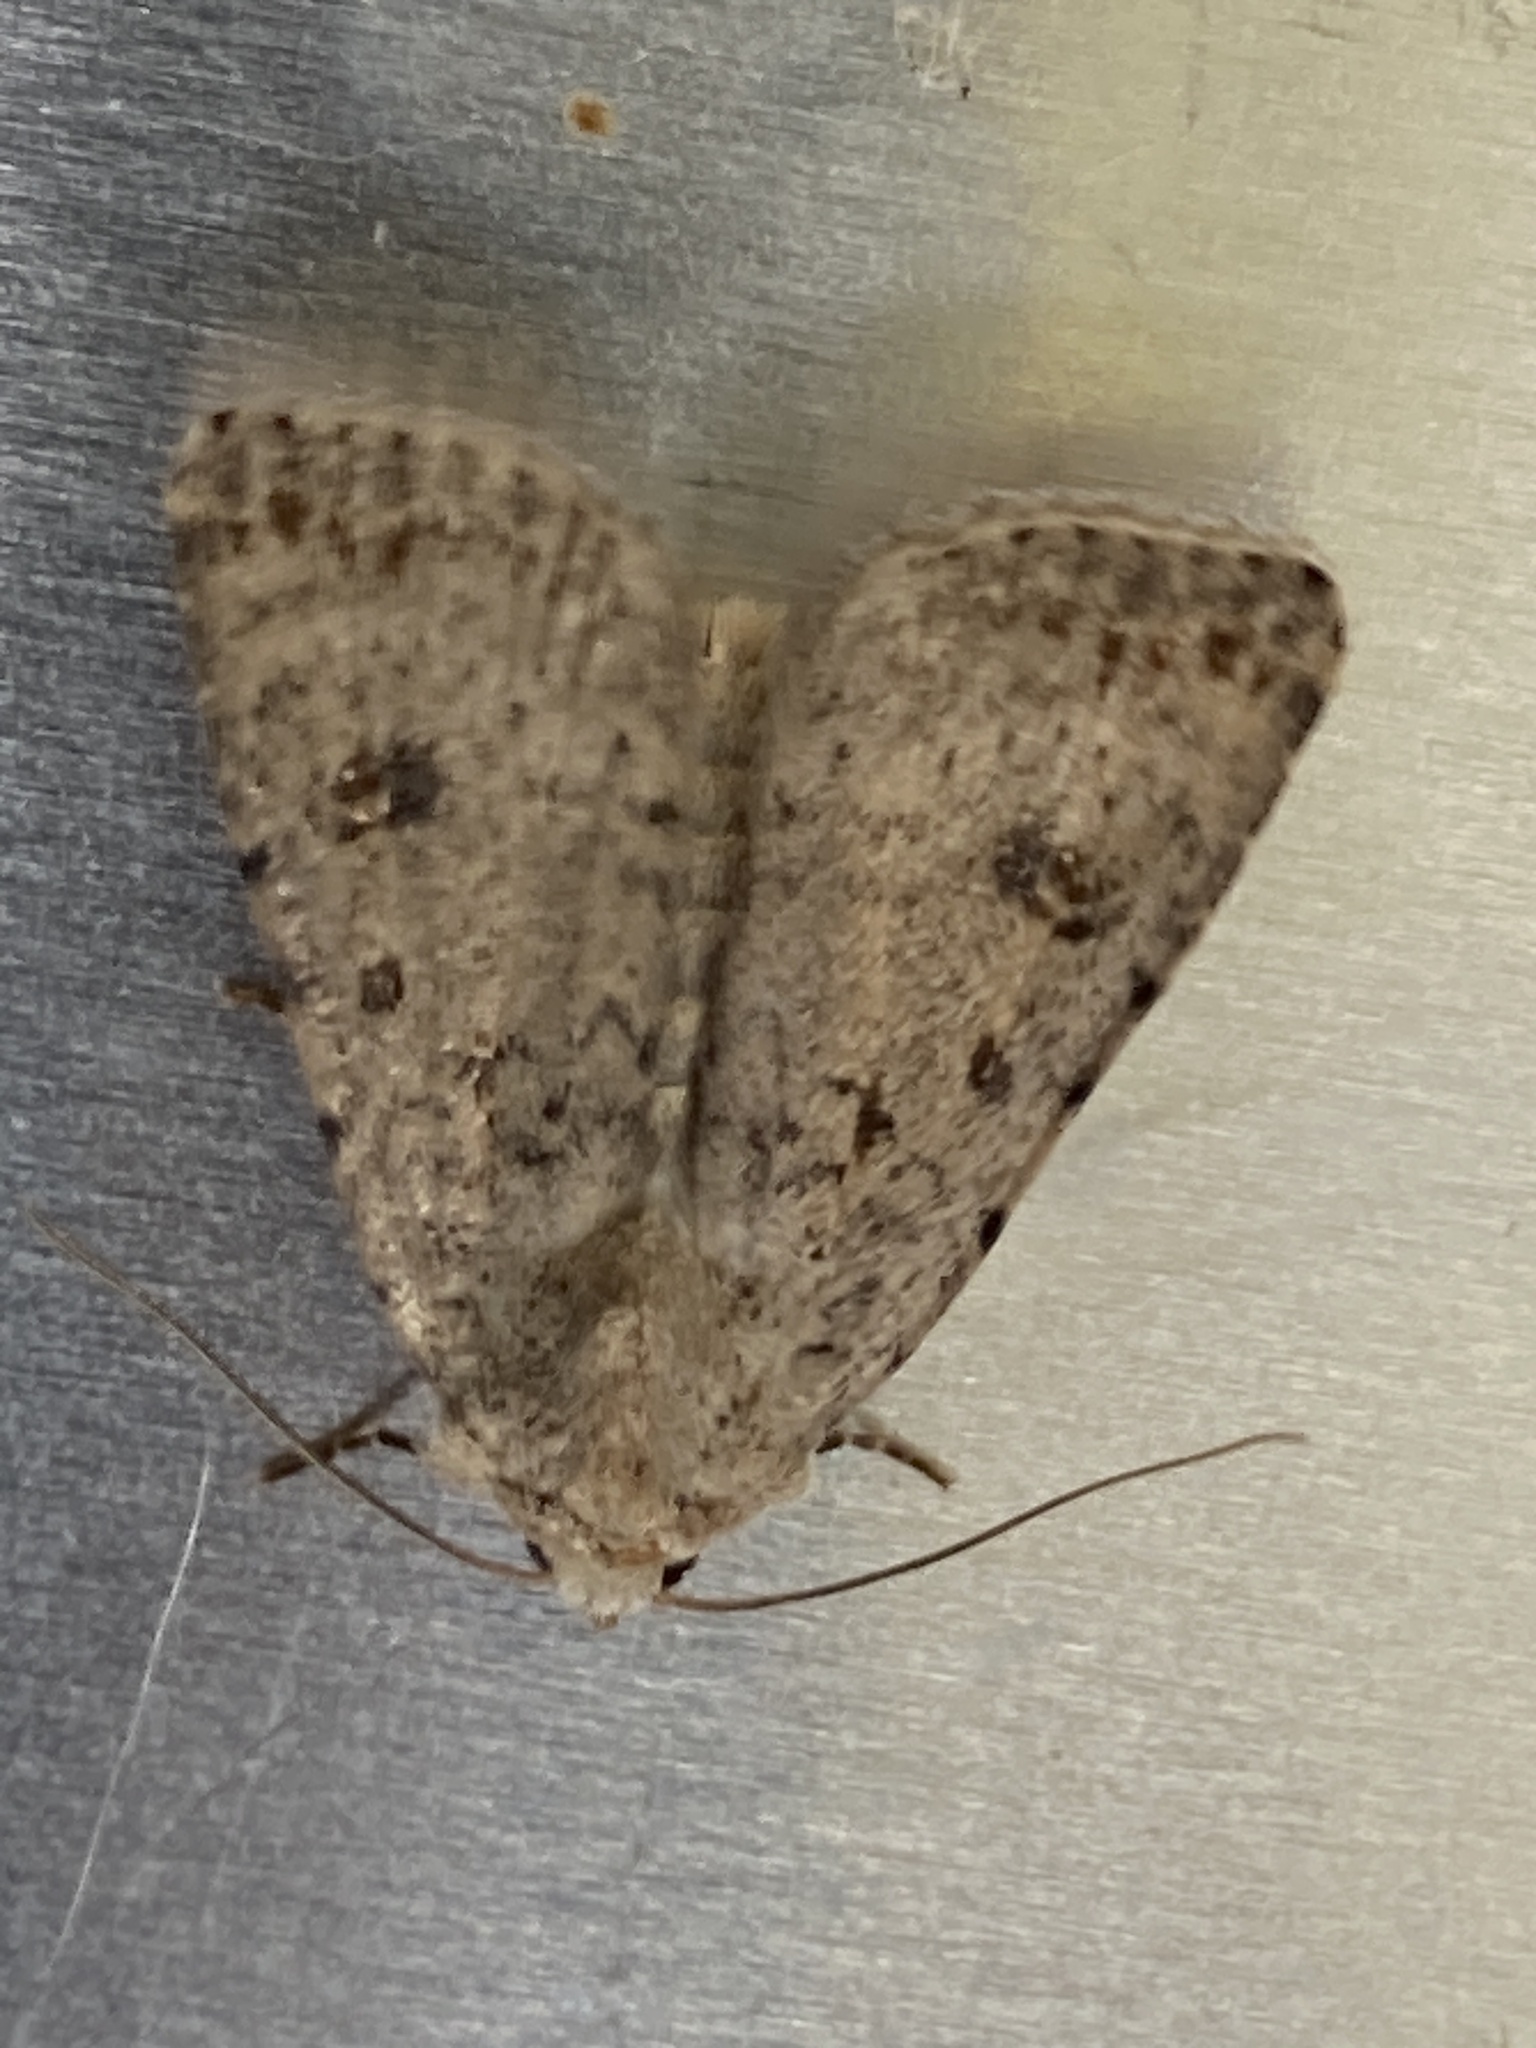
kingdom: Animalia
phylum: Arthropoda
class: Insecta
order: Lepidoptera
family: Noctuidae
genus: Caradrina
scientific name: Caradrina clavipalpis
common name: Pale mottled willow
